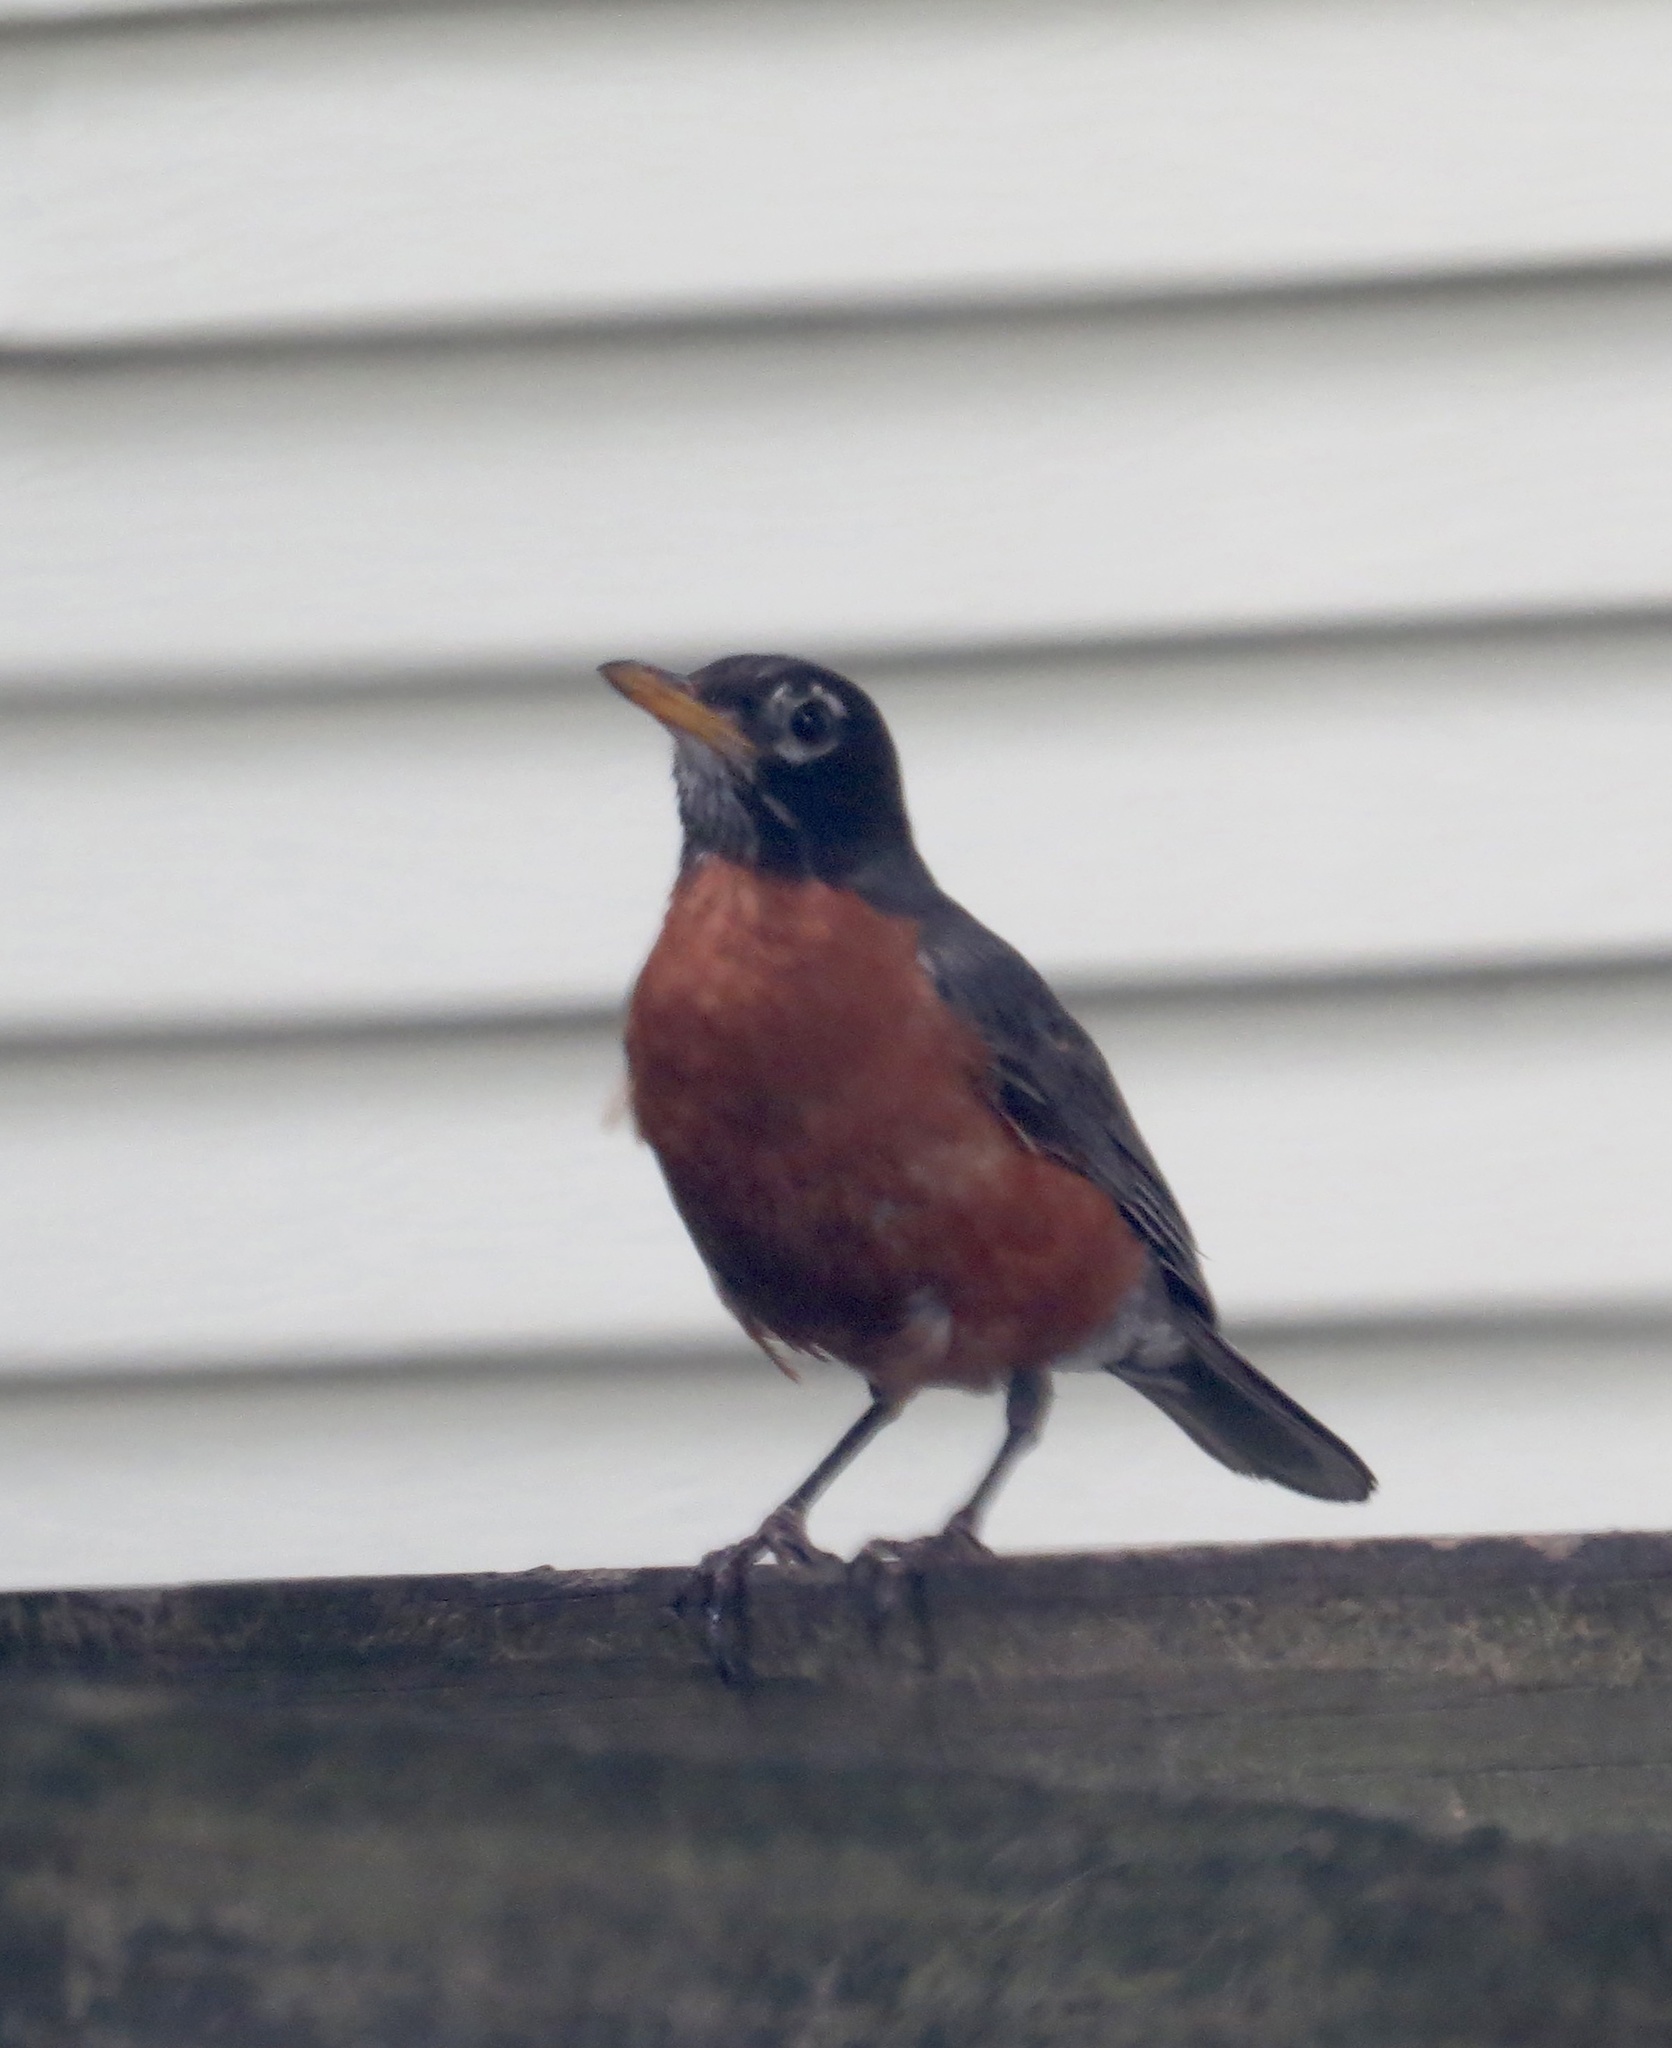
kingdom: Animalia
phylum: Chordata
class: Aves
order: Passeriformes
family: Turdidae
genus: Turdus
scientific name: Turdus migratorius
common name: American robin
